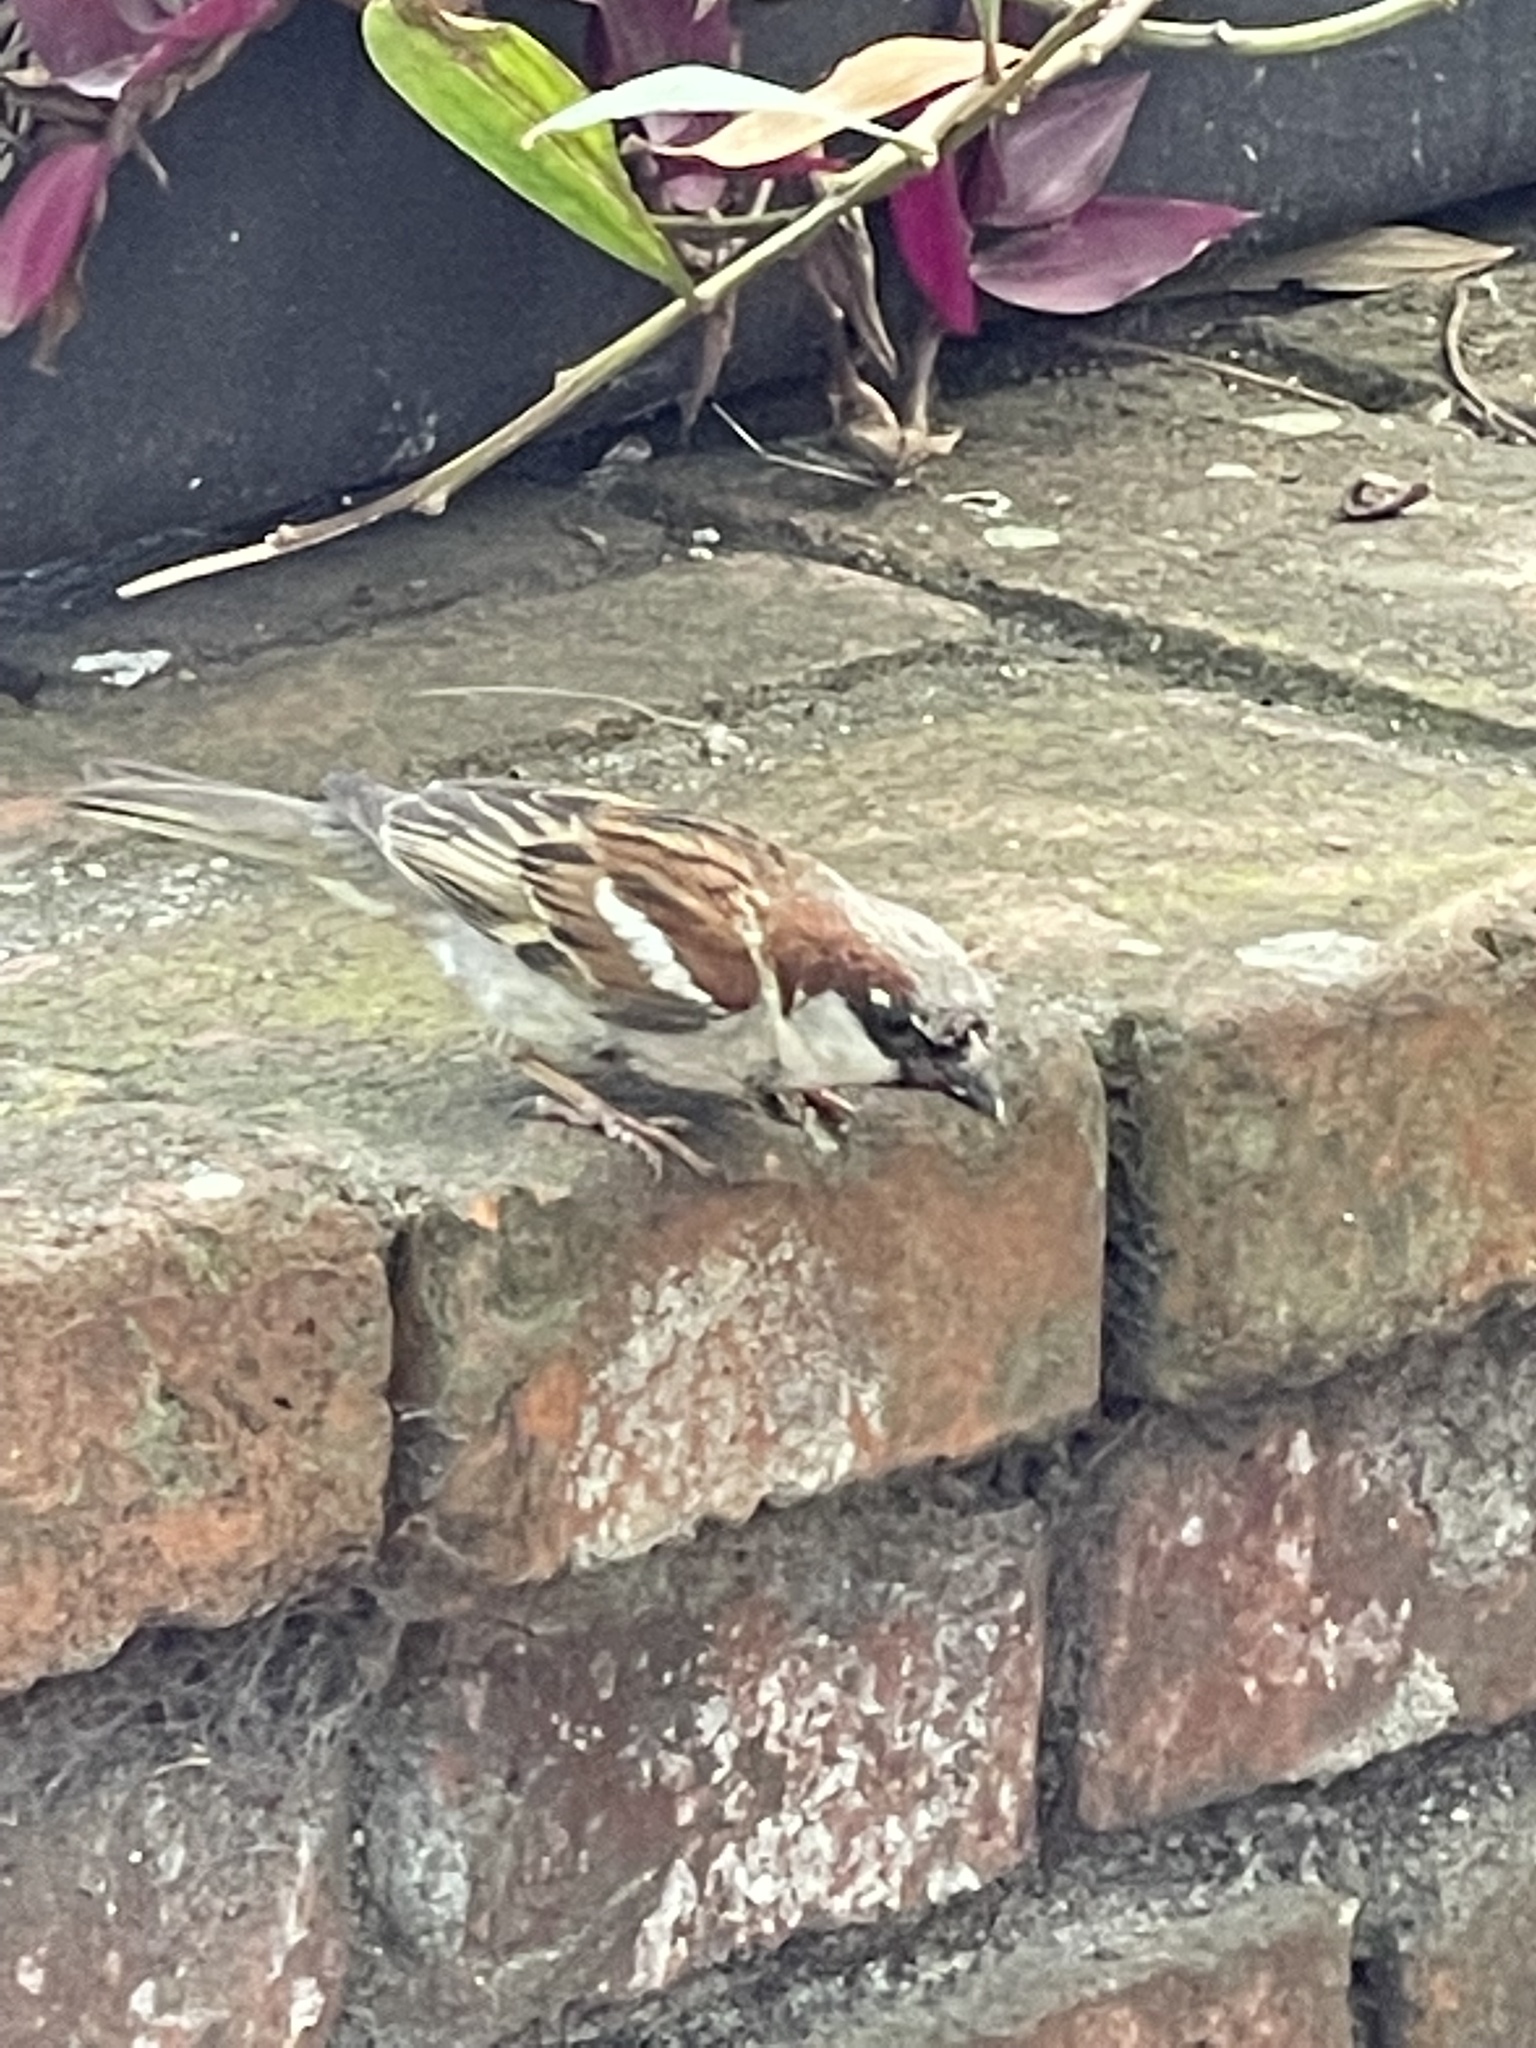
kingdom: Animalia
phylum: Chordata
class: Aves
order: Passeriformes
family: Passeridae
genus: Passer
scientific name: Passer domesticus
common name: House sparrow
